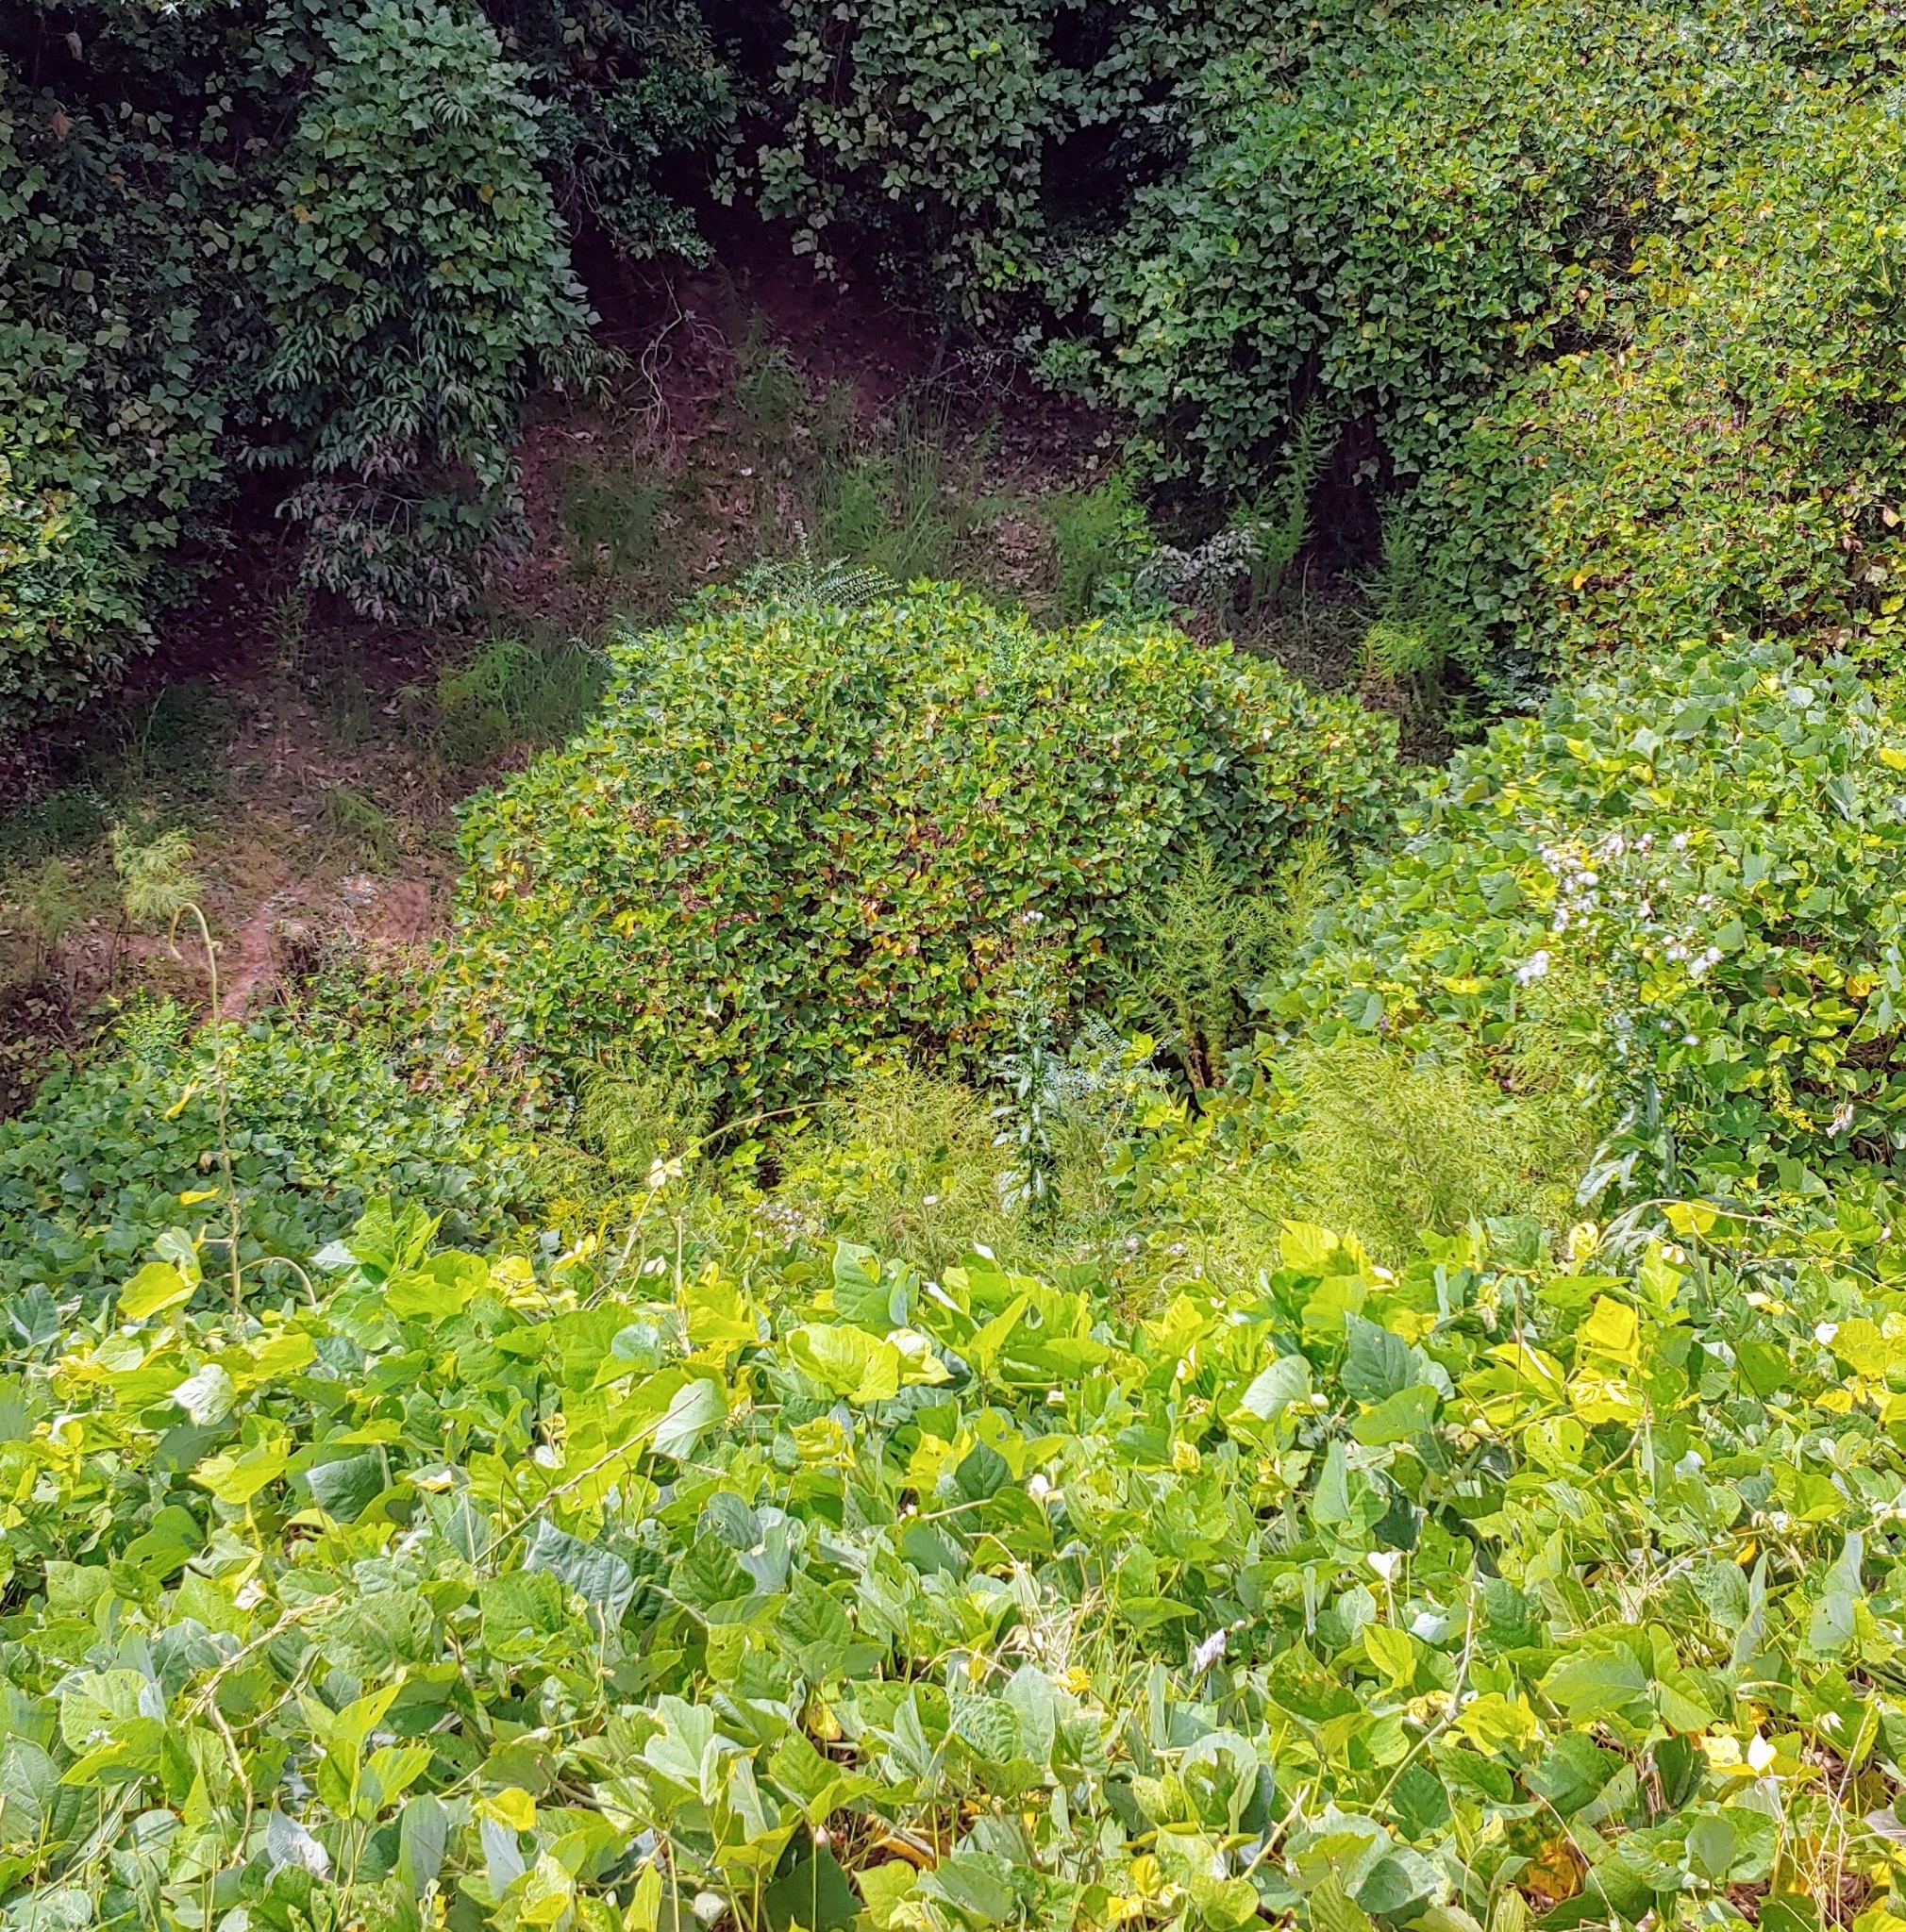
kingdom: Plantae
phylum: Tracheophyta
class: Magnoliopsida
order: Fabales
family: Fabaceae
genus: Pueraria
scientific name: Pueraria montana
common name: Kudzu
